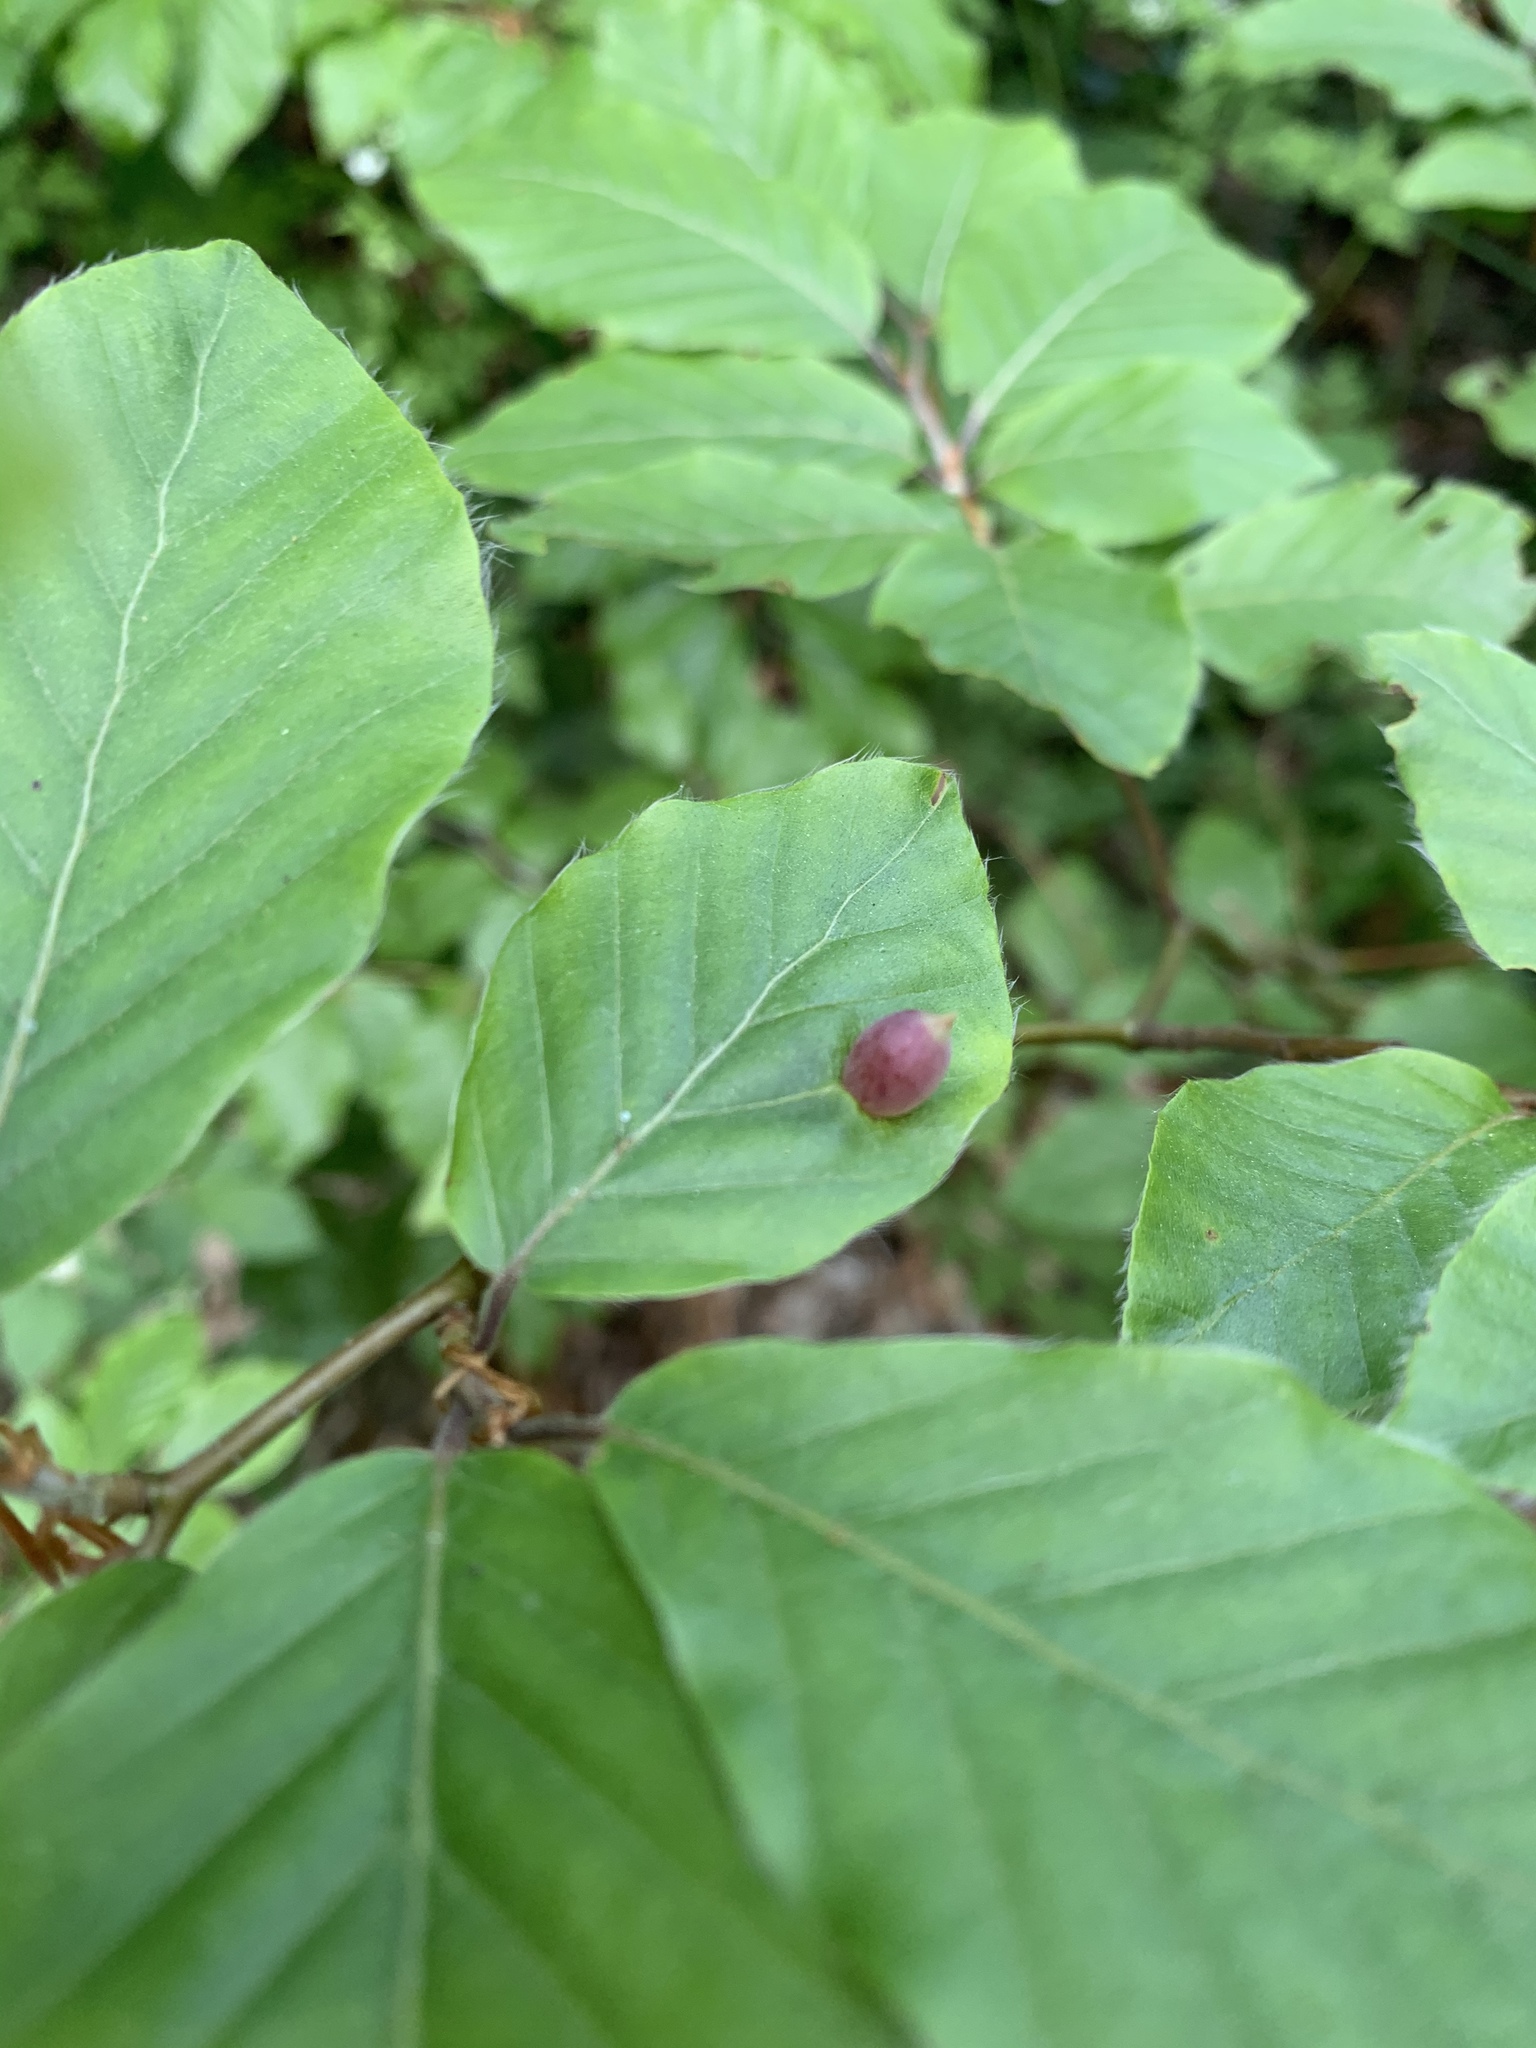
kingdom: Animalia
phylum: Arthropoda
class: Insecta
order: Diptera
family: Cecidomyiidae
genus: Mikiola
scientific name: Mikiola fagi
